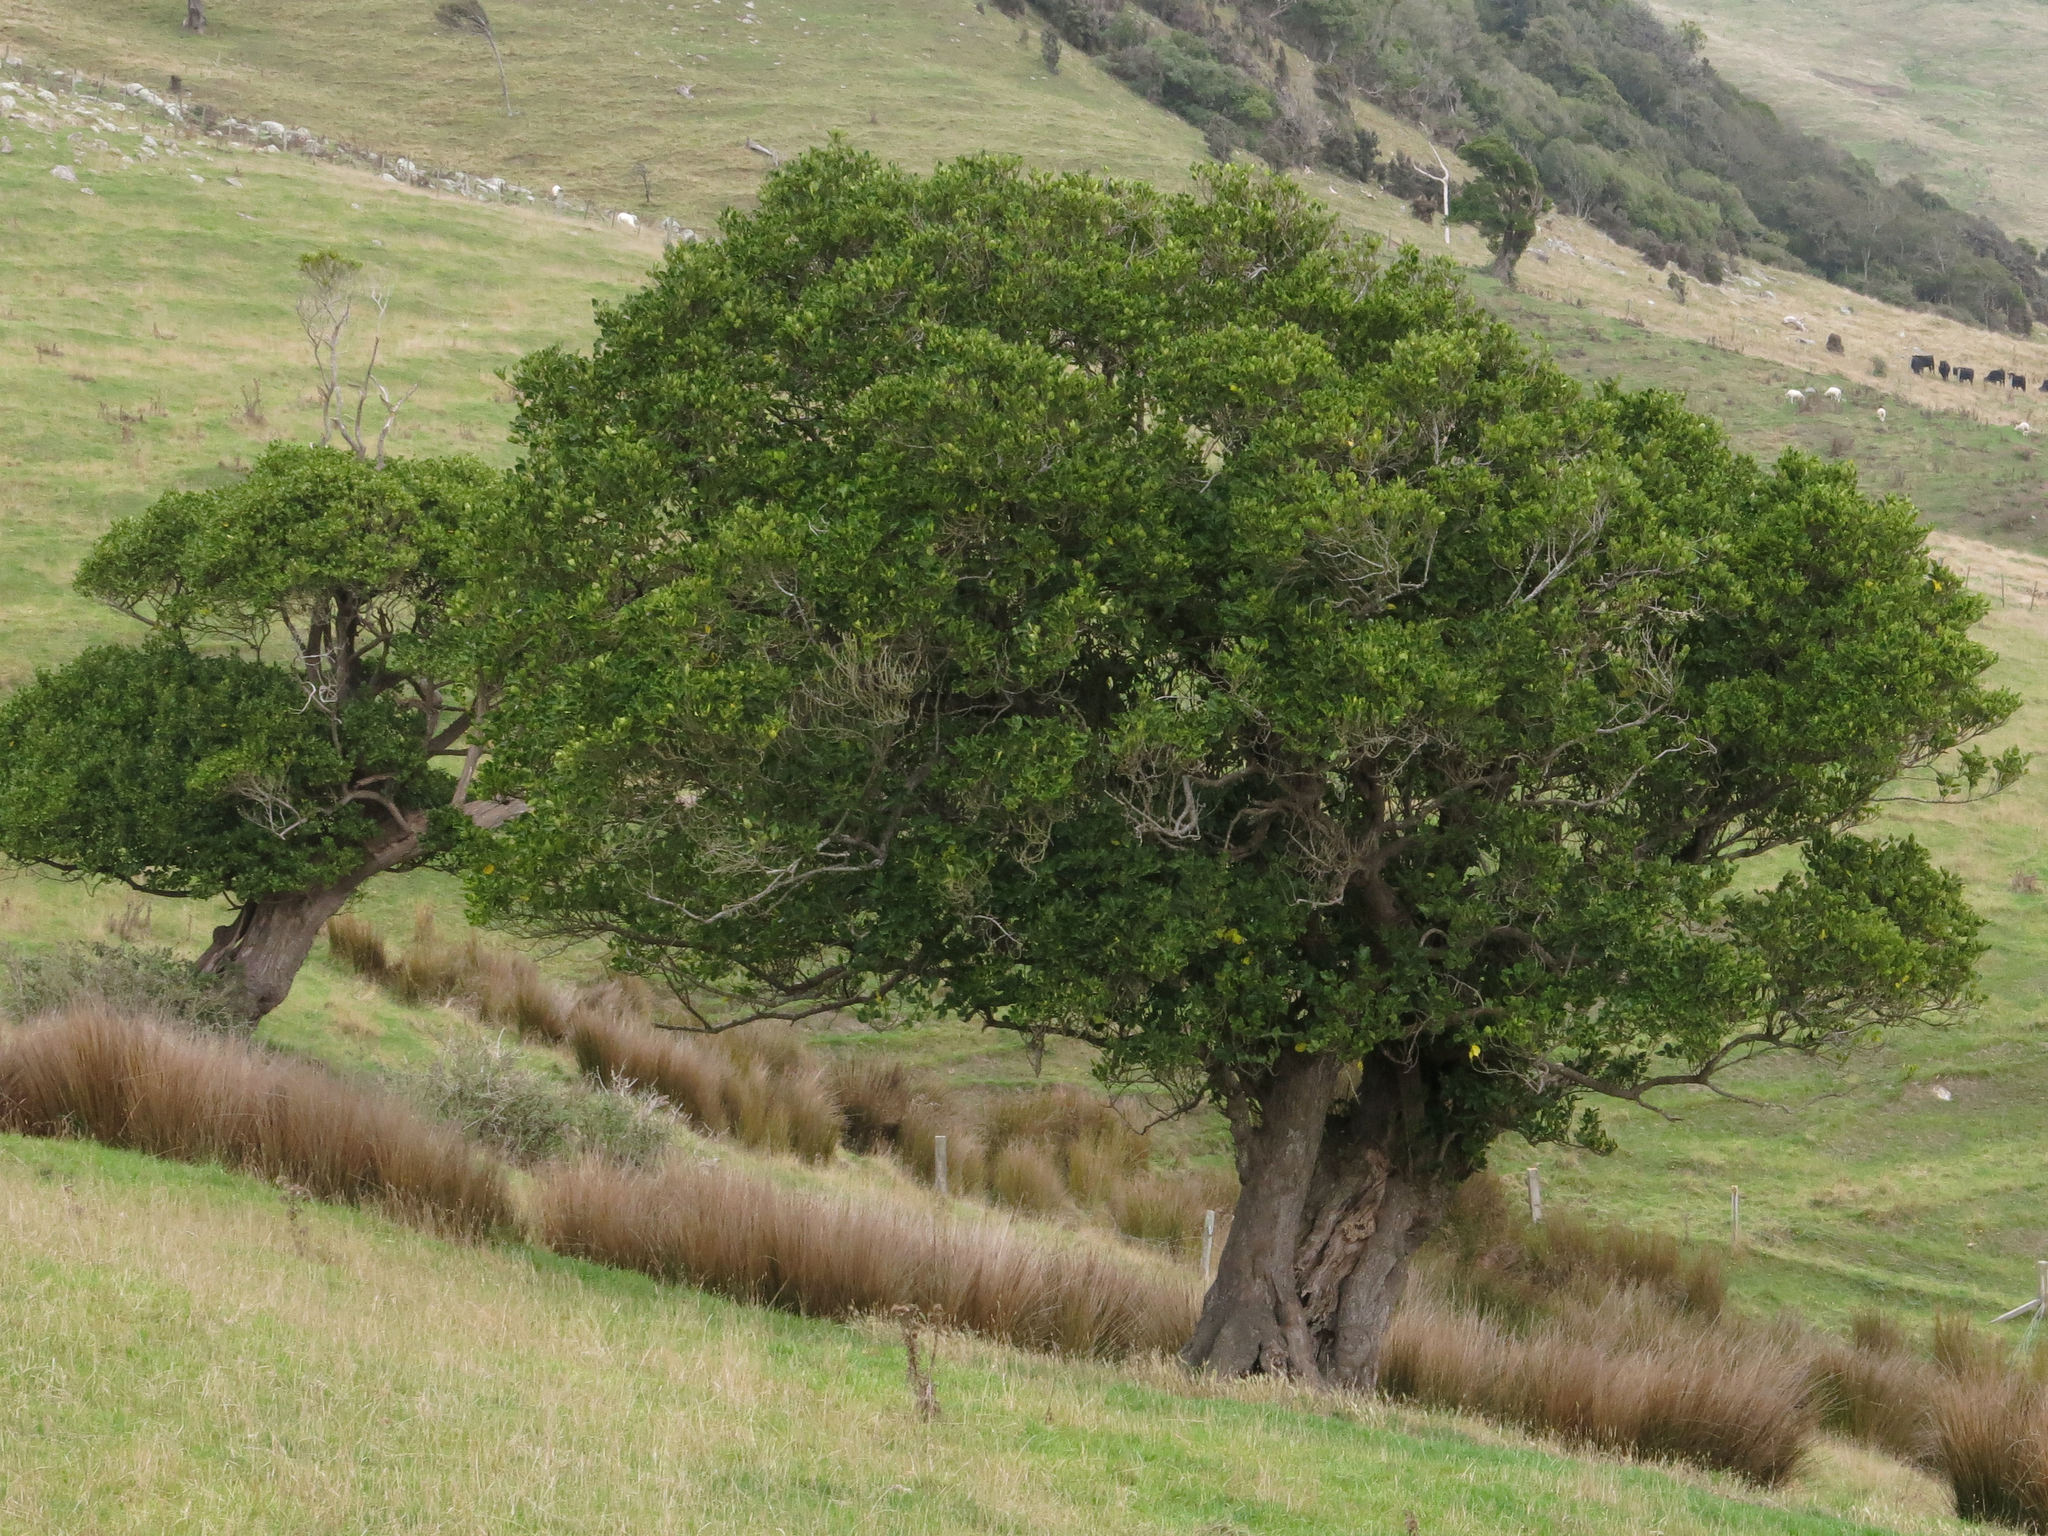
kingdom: Plantae
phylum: Tracheophyta
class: Magnoliopsida
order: Apiales
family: Griseliniaceae
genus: Griselinia
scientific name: Griselinia littoralis
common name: New zealand broadleaf
